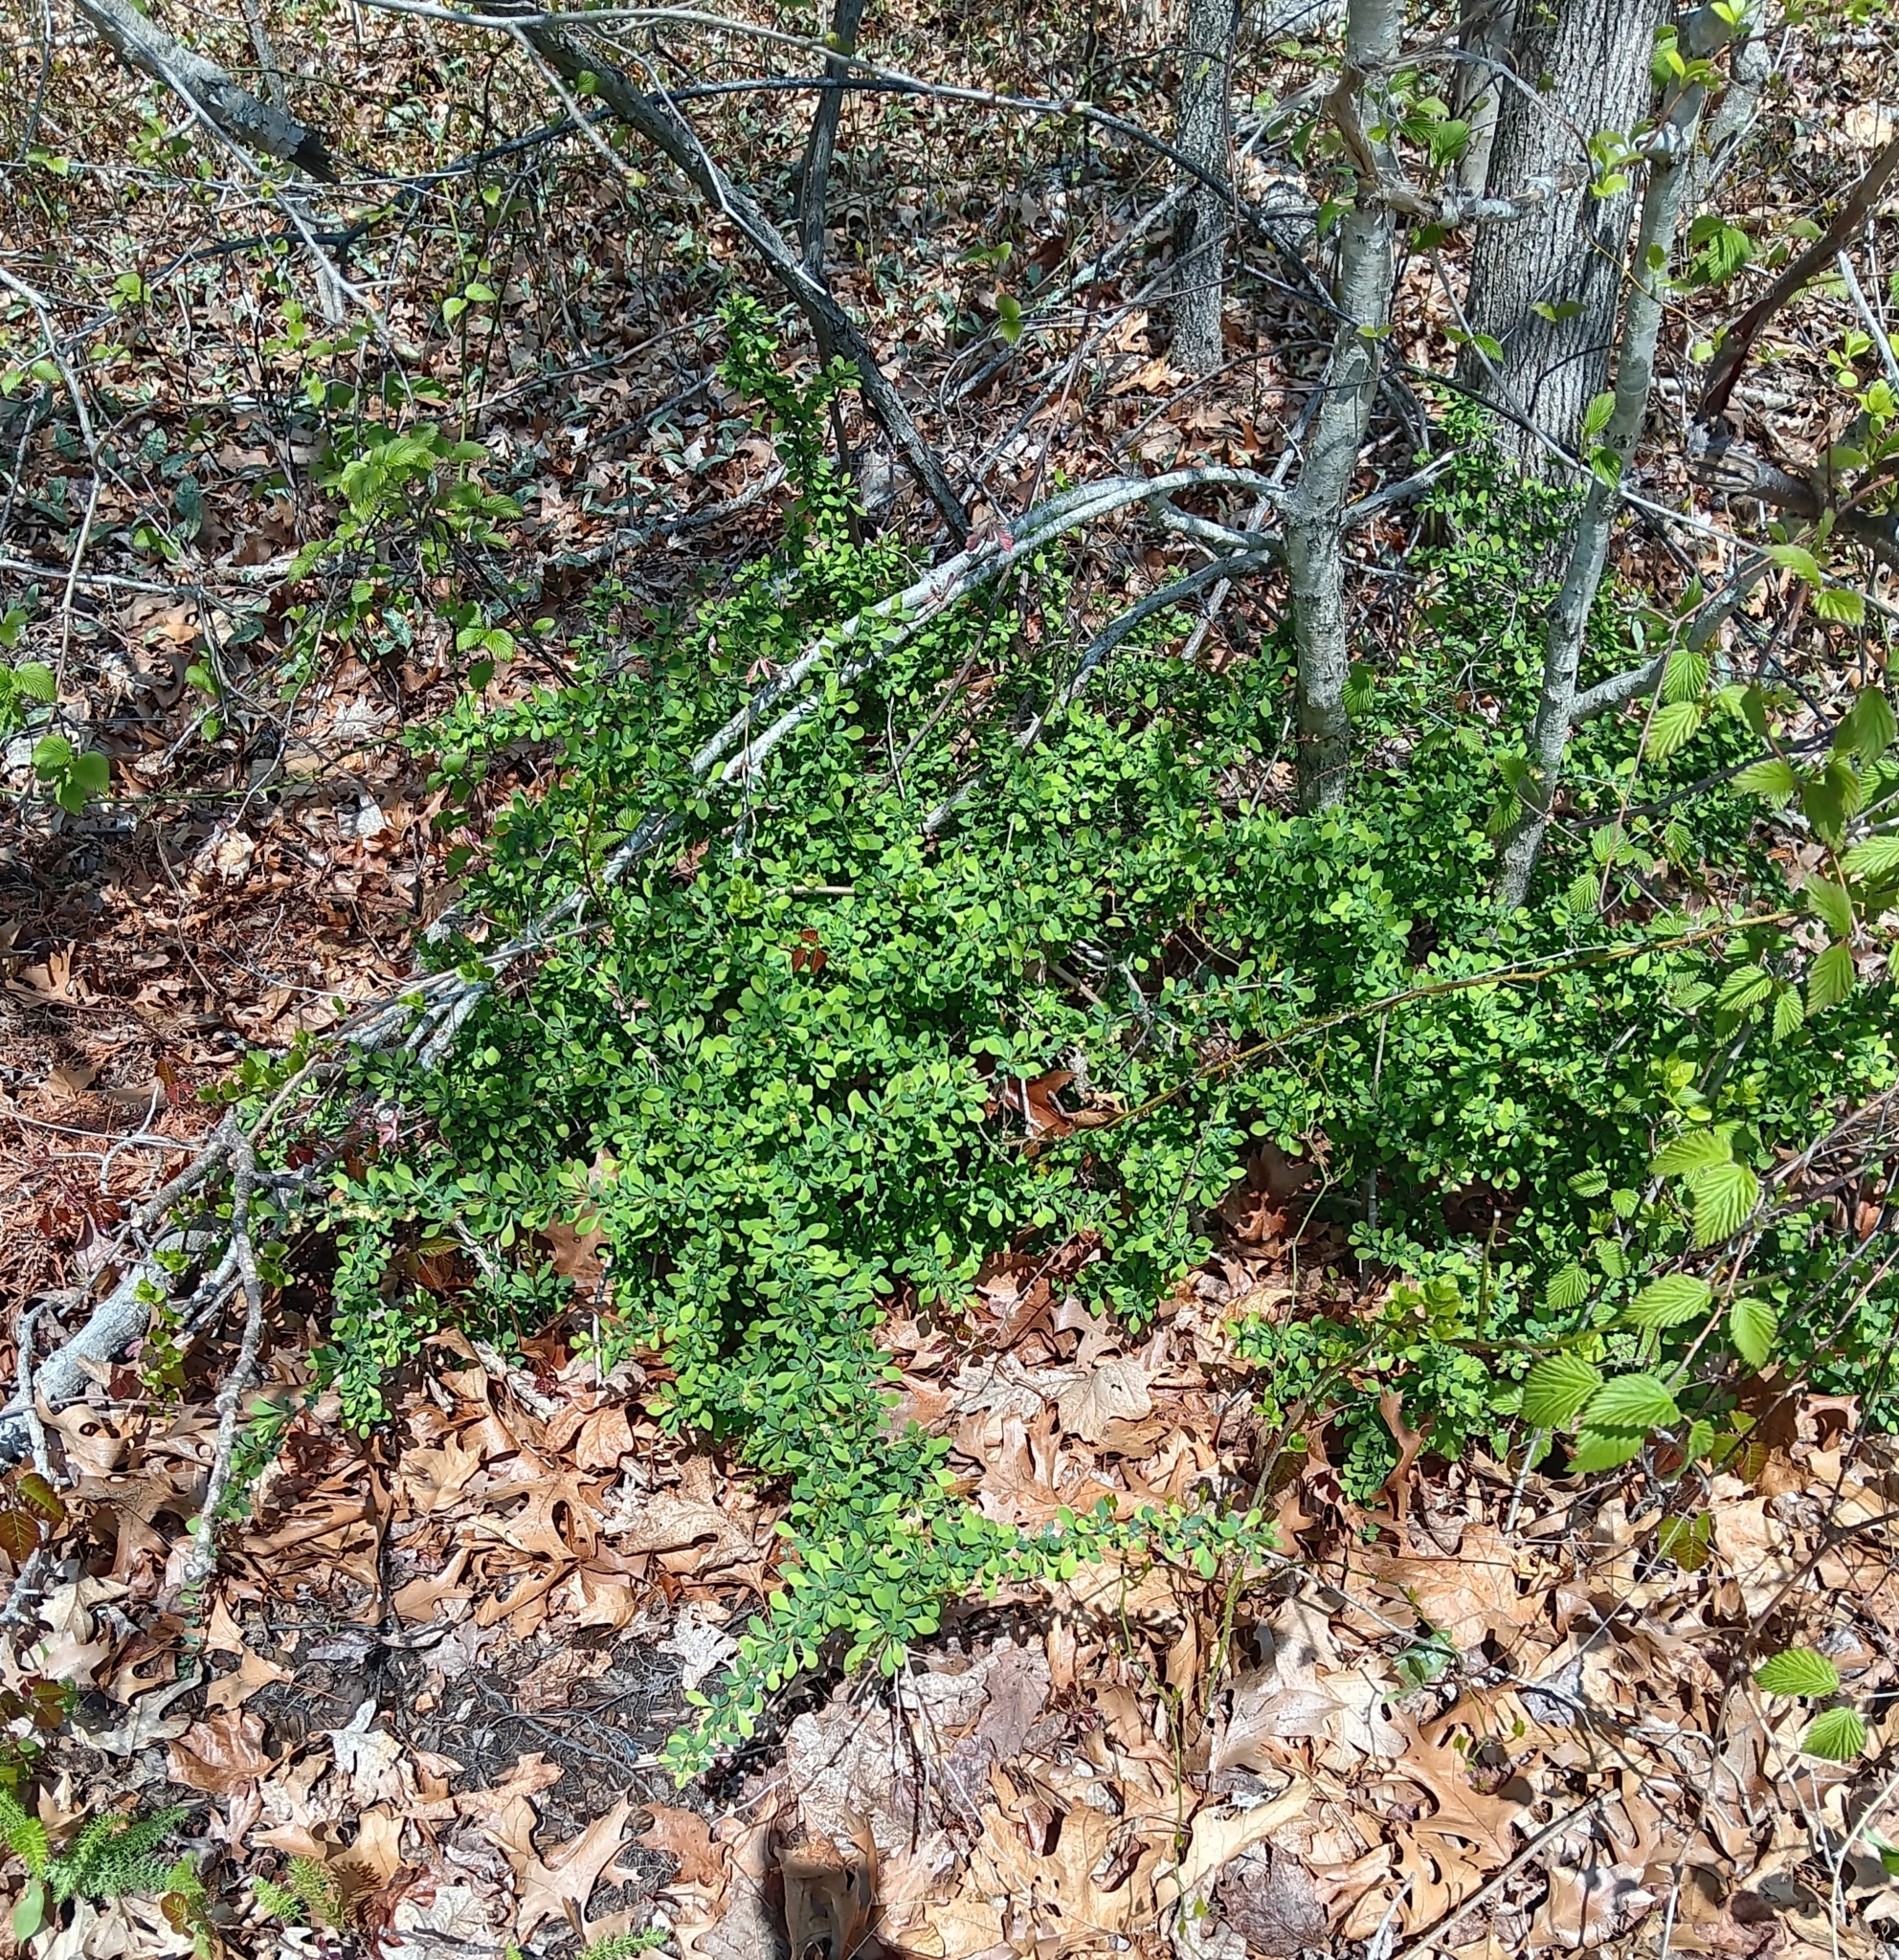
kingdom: Plantae
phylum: Tracheophyta
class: Magnoliopsida
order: Ranunculales
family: Berberidaceae
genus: Berberis
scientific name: Berberis thunbergii
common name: Japanese barberry
